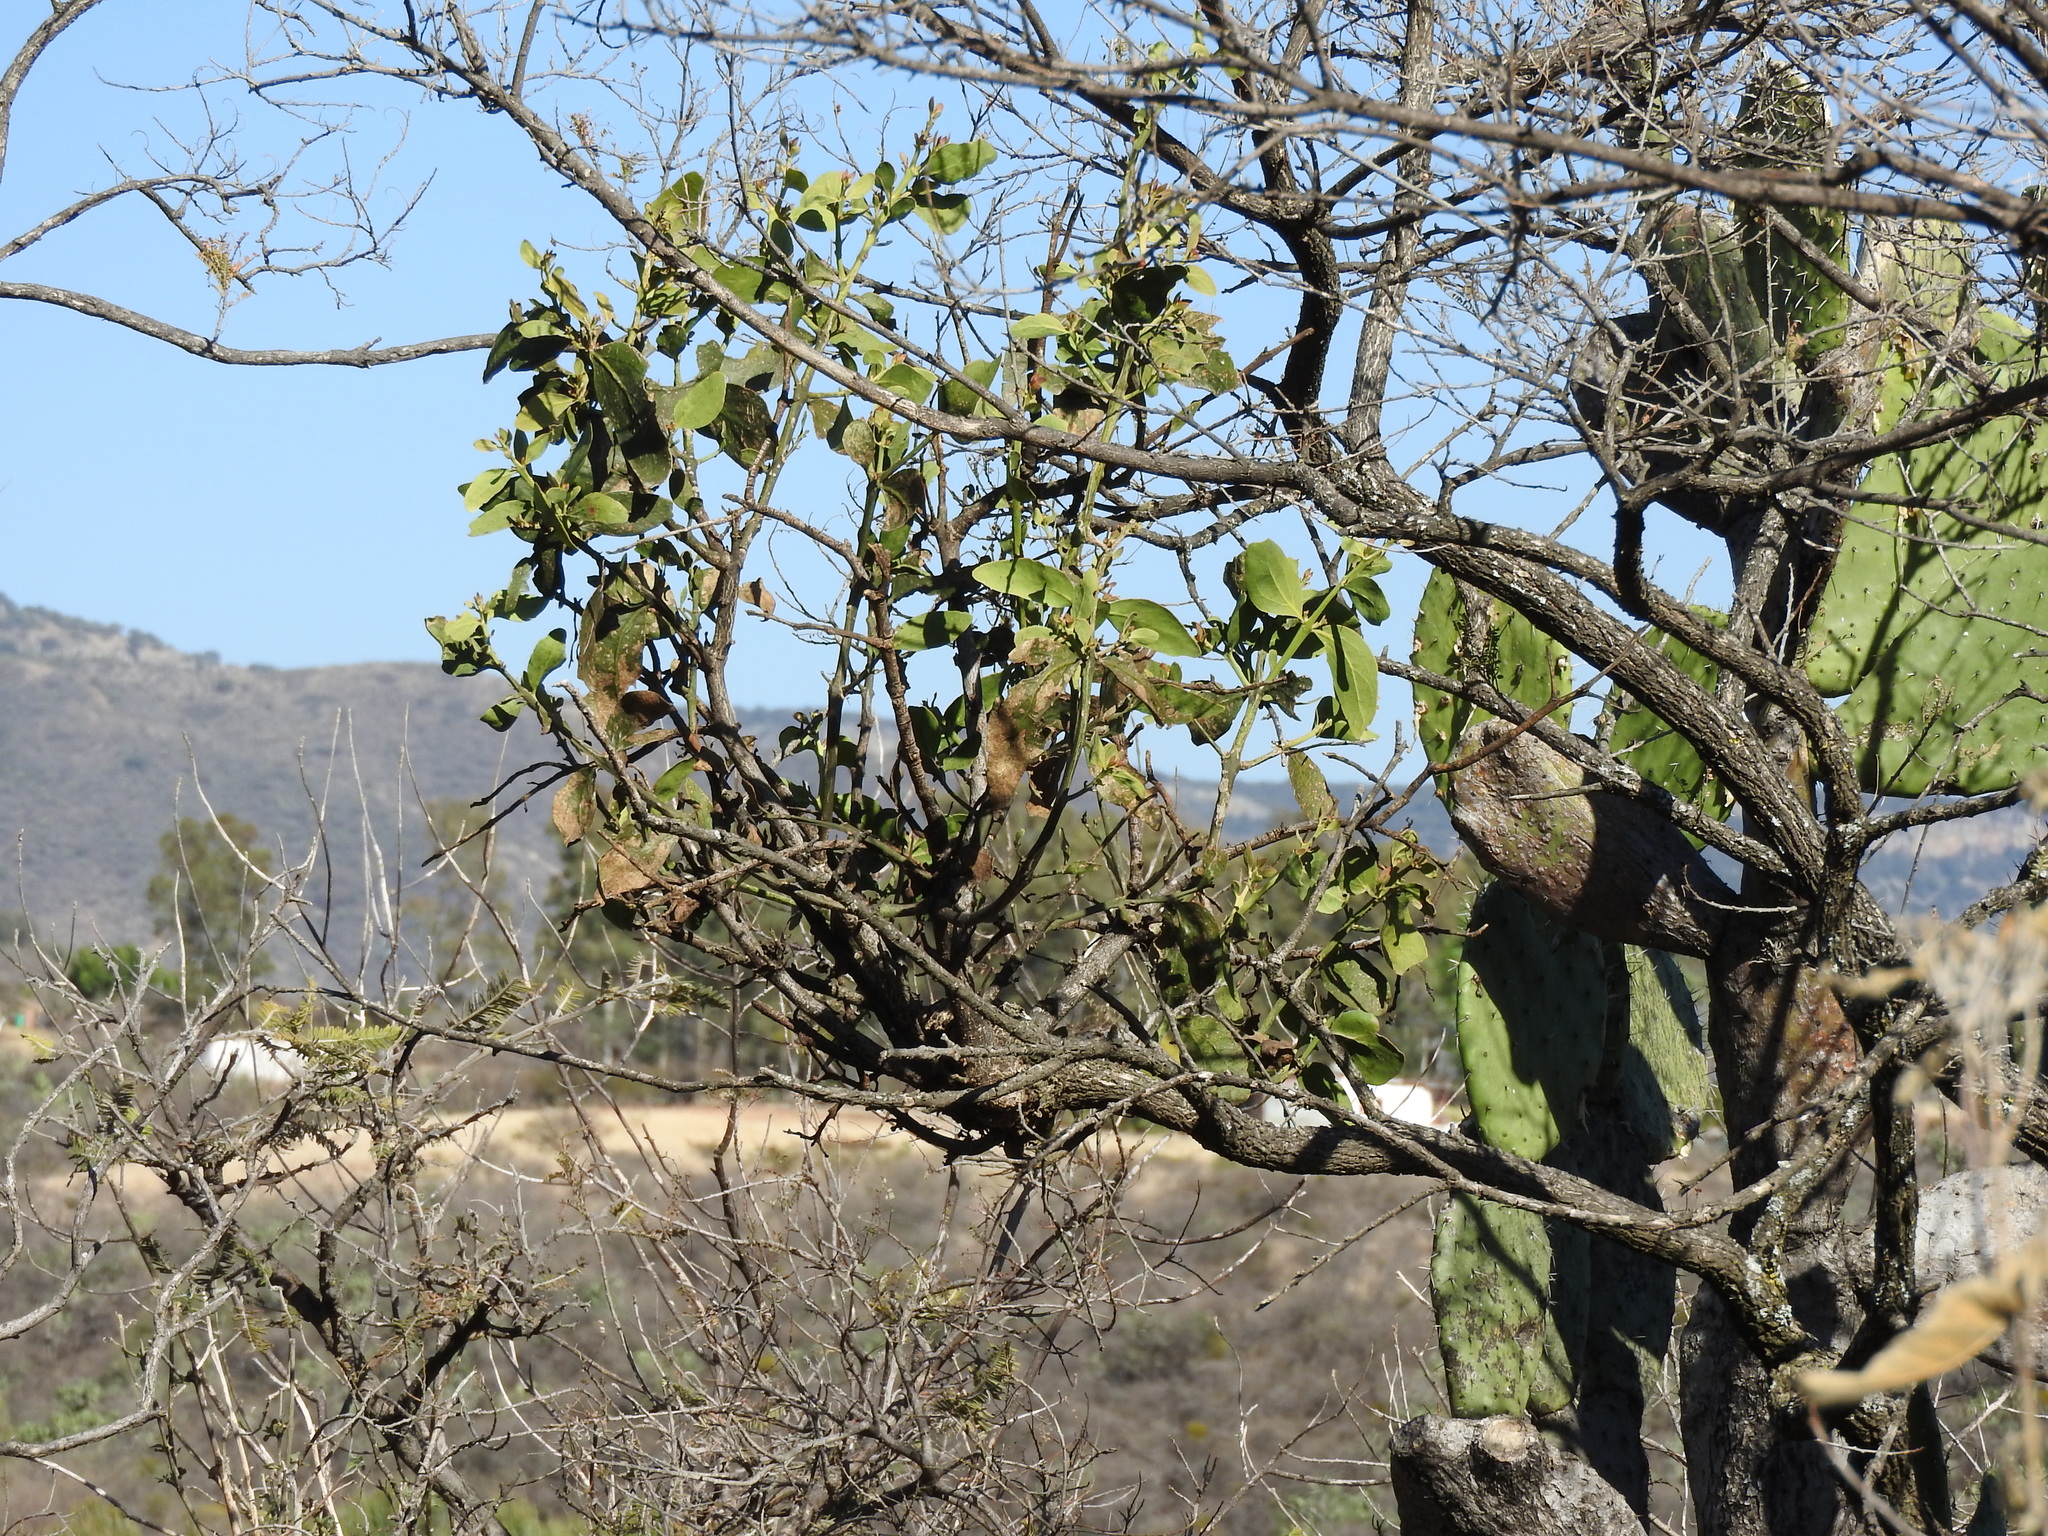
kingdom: Plantae
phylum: Tracheophyta
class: Magnoliopsida
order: Santalales
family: Loranthaceae
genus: Psittacanthus
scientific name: Psittacanthus calyculatus
